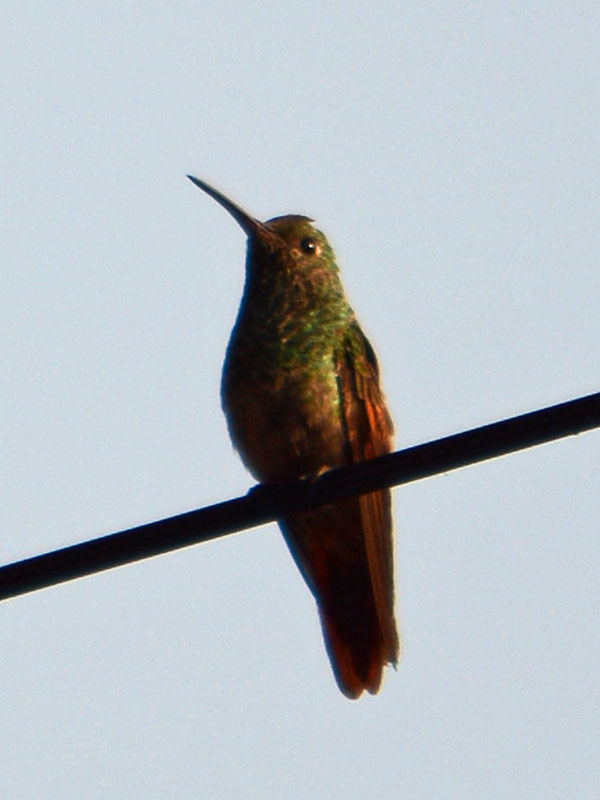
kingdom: Animalia
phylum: Chordata
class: Aves
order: Apodiformes
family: Trochilidae
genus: Saucerottia
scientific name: Saucerottia beryllina
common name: Berylline hummingbird
